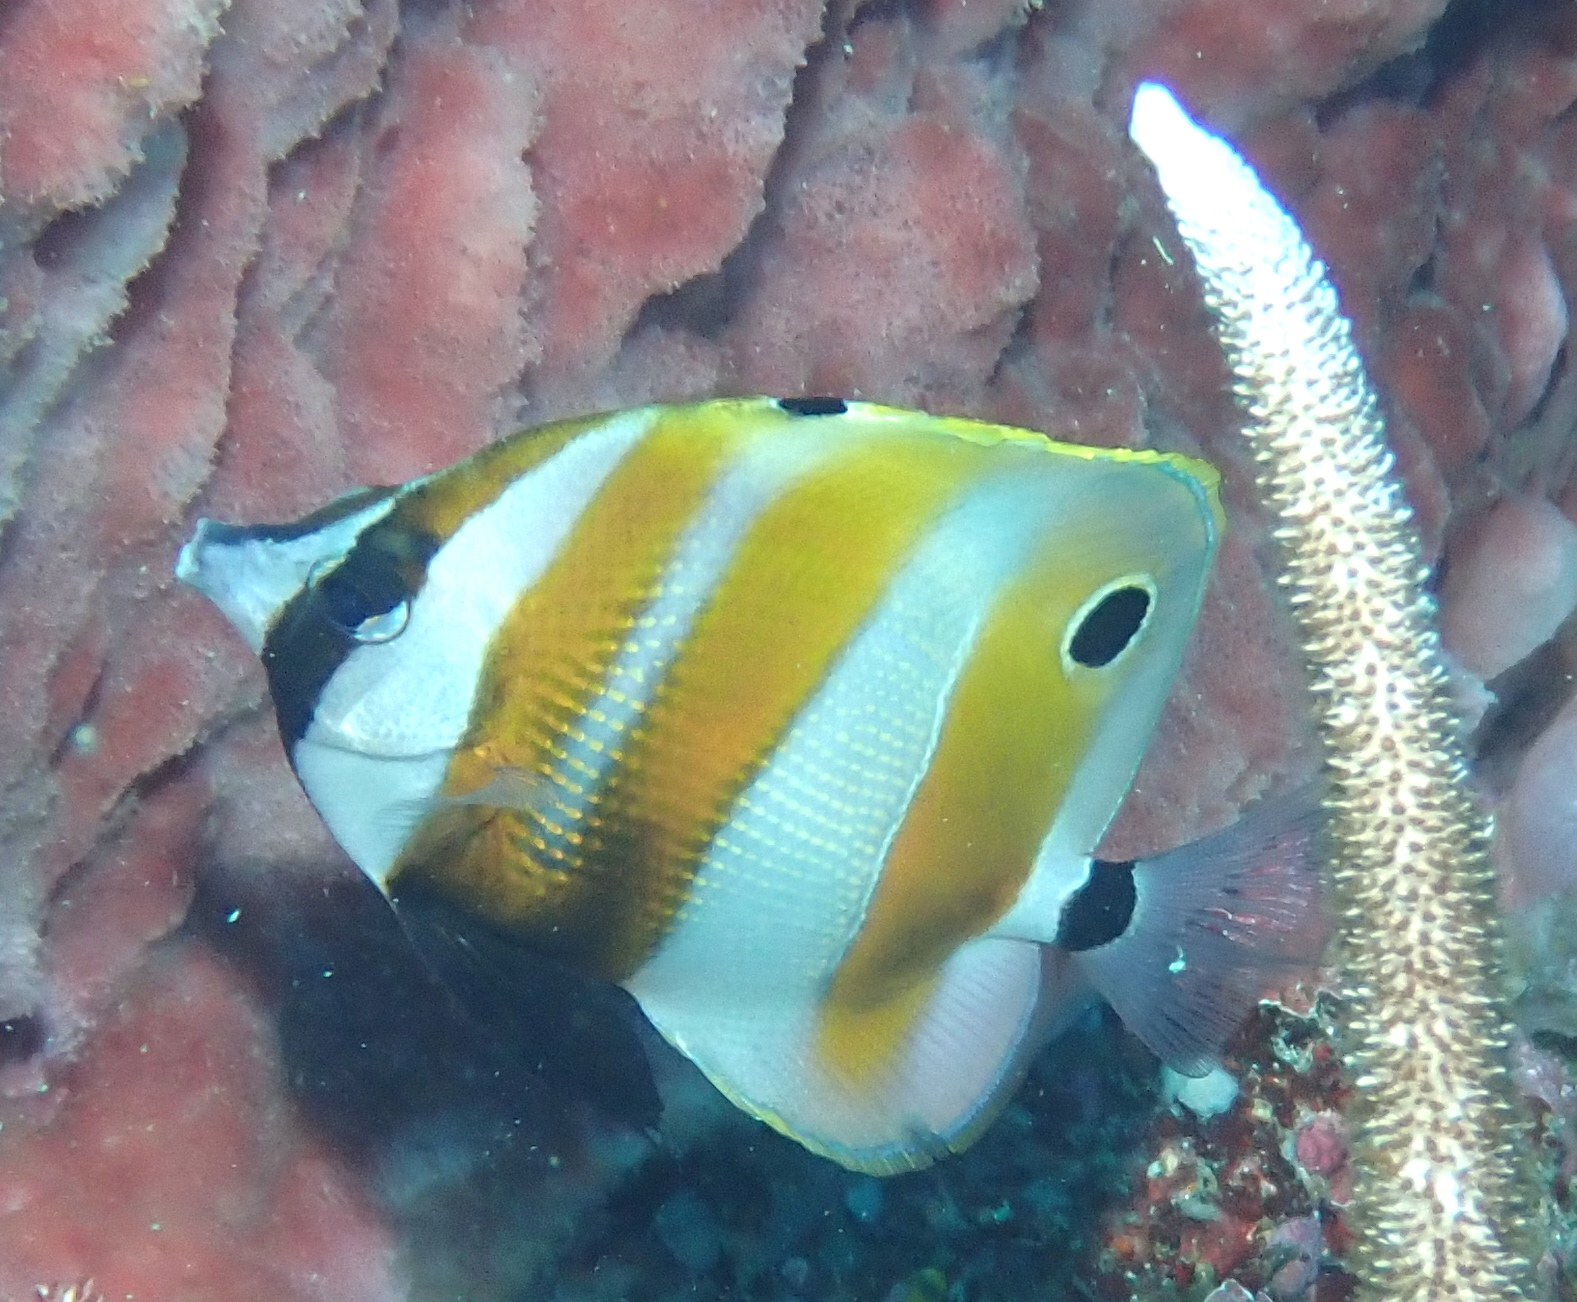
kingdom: Animalia
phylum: Chordata
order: Perciformes
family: Chaetodontidae
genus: Coradion
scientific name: Coradion chrysozonus
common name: Orange-banded coralfish
